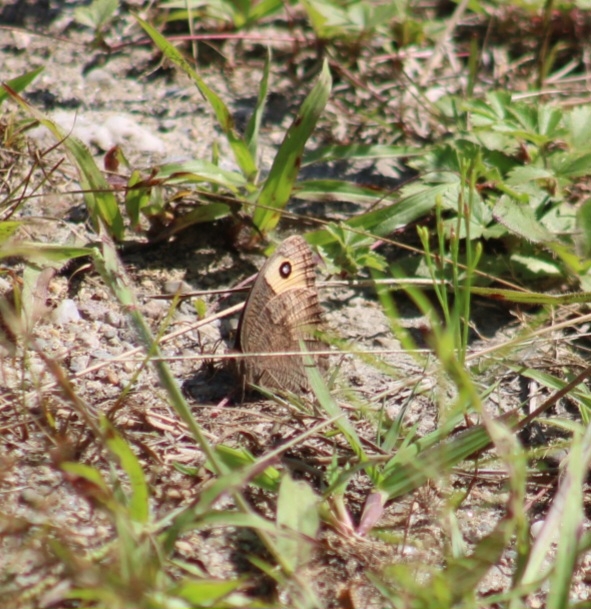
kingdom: Animalia
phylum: Arthropoda
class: Insecta
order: Lepidoptera
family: Nymphalidae
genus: Cercyonis
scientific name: Cercyonis pegala
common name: Common wood-nymph
